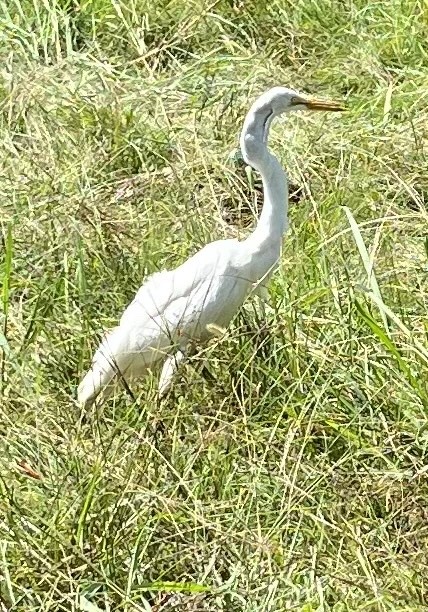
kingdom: Animalia
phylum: Chordata
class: Aves
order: Pelecaniformes
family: Ardeidae
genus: Ardea
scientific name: Ardea alba
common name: Great egret
